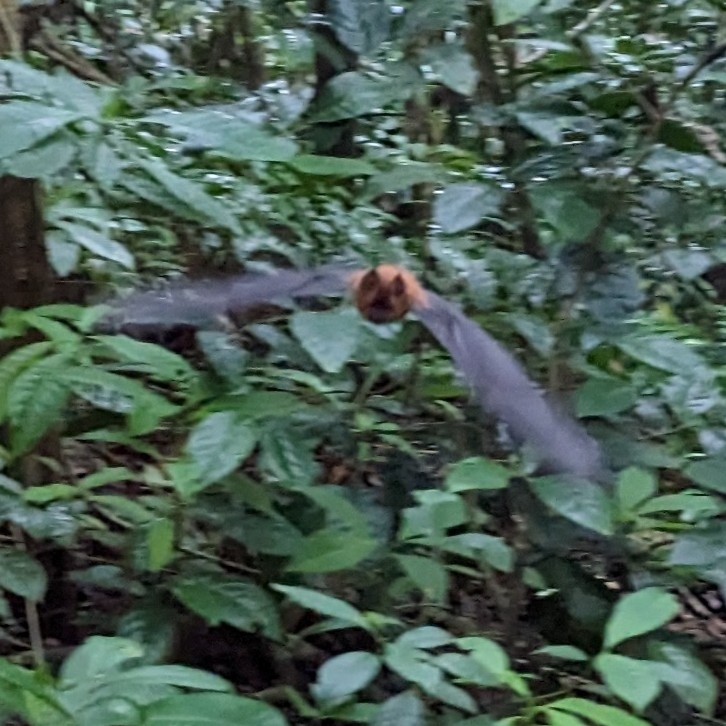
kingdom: Animalia
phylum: Chordata
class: Mammalia
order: Chiroptera
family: Hipposideridae
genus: Hipposideros
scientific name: Hipposideros ruber
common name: Noack's roundleaf bat
